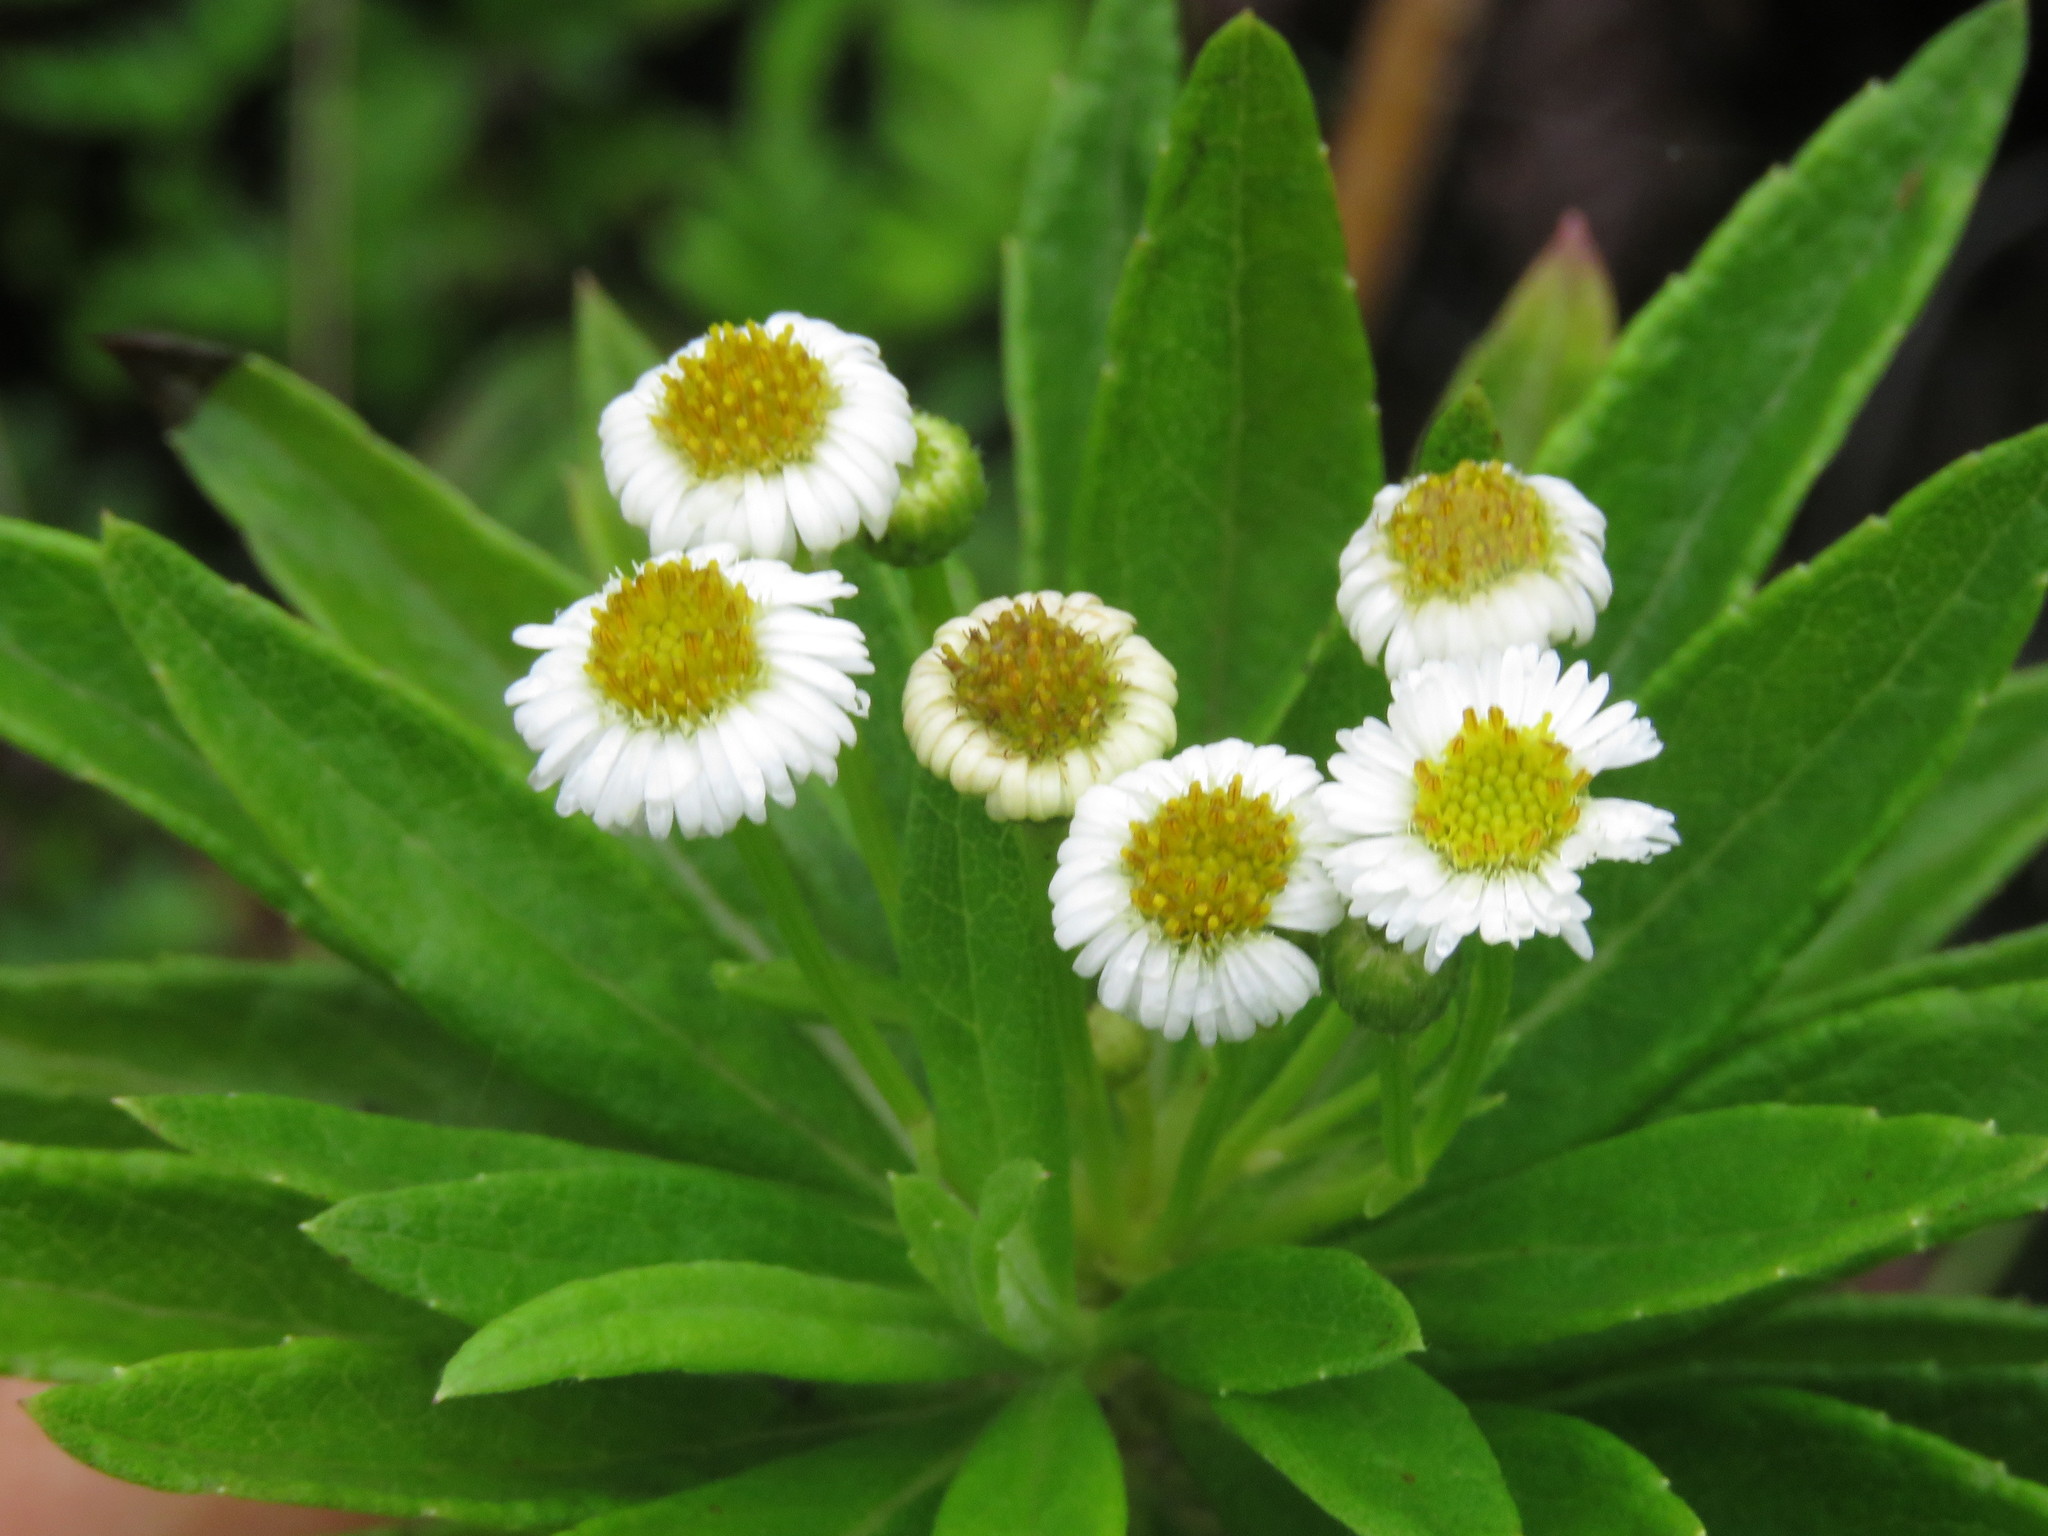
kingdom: Plantae
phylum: Tracheophyta
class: Magnoliopsida
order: Asterales
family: Asteraceae
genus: Erigeron
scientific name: Erigeron lancifolius
